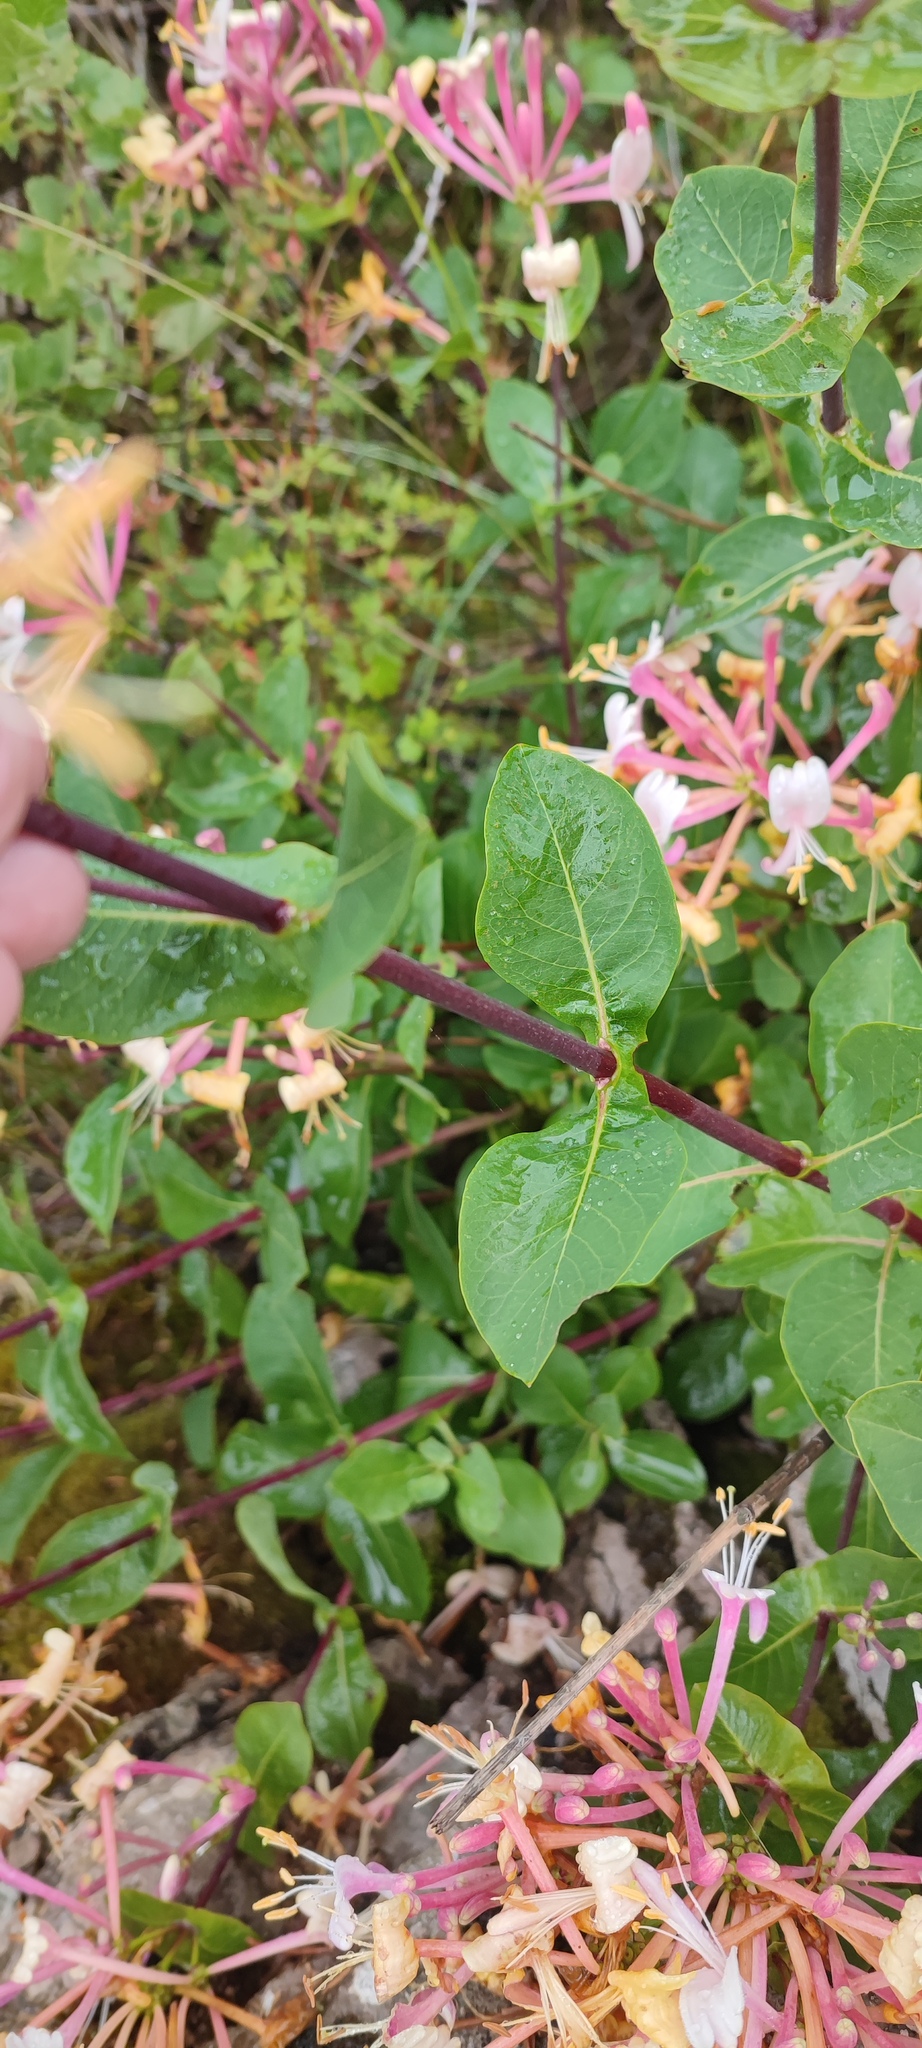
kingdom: Plantae
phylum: Tracheophyta
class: Magnoliopsida
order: Dipsacales
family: Caprifoliaceae
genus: Lonicera
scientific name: Lonicera etrusca
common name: Etruscan honeysuckle
